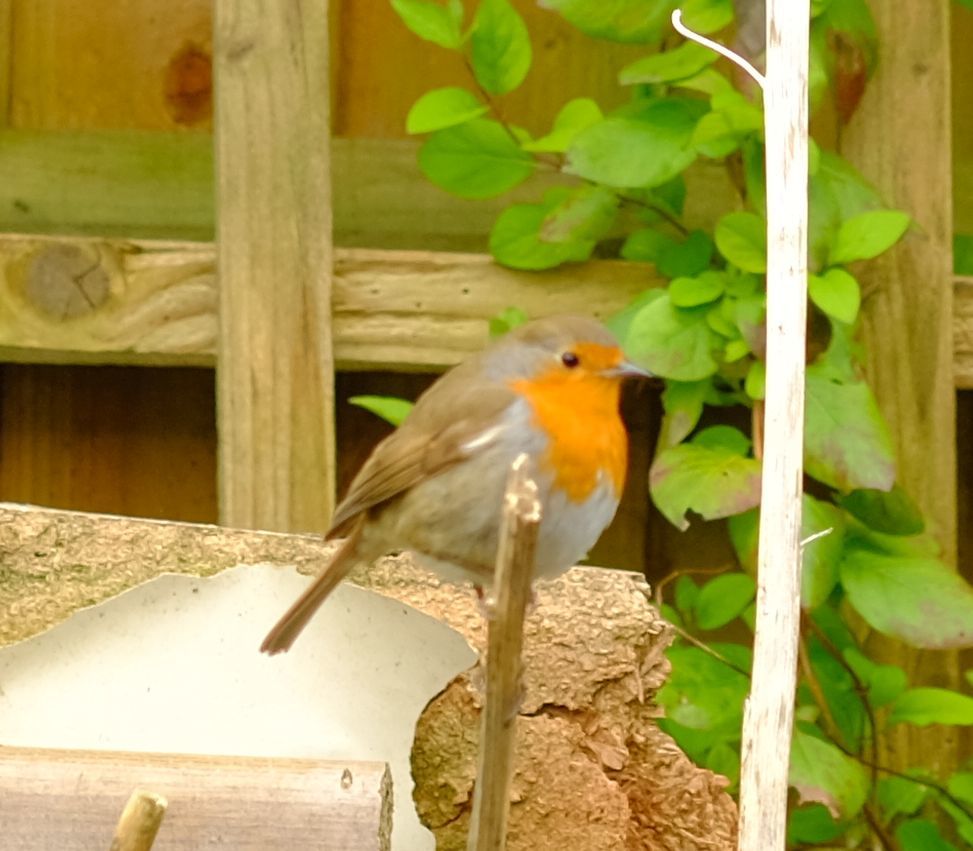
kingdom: Animalia
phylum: Chordata
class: Aves
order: Passeriformes
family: Muscicapidae
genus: Erithacus
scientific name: Erithacus rubecula
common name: European robin
